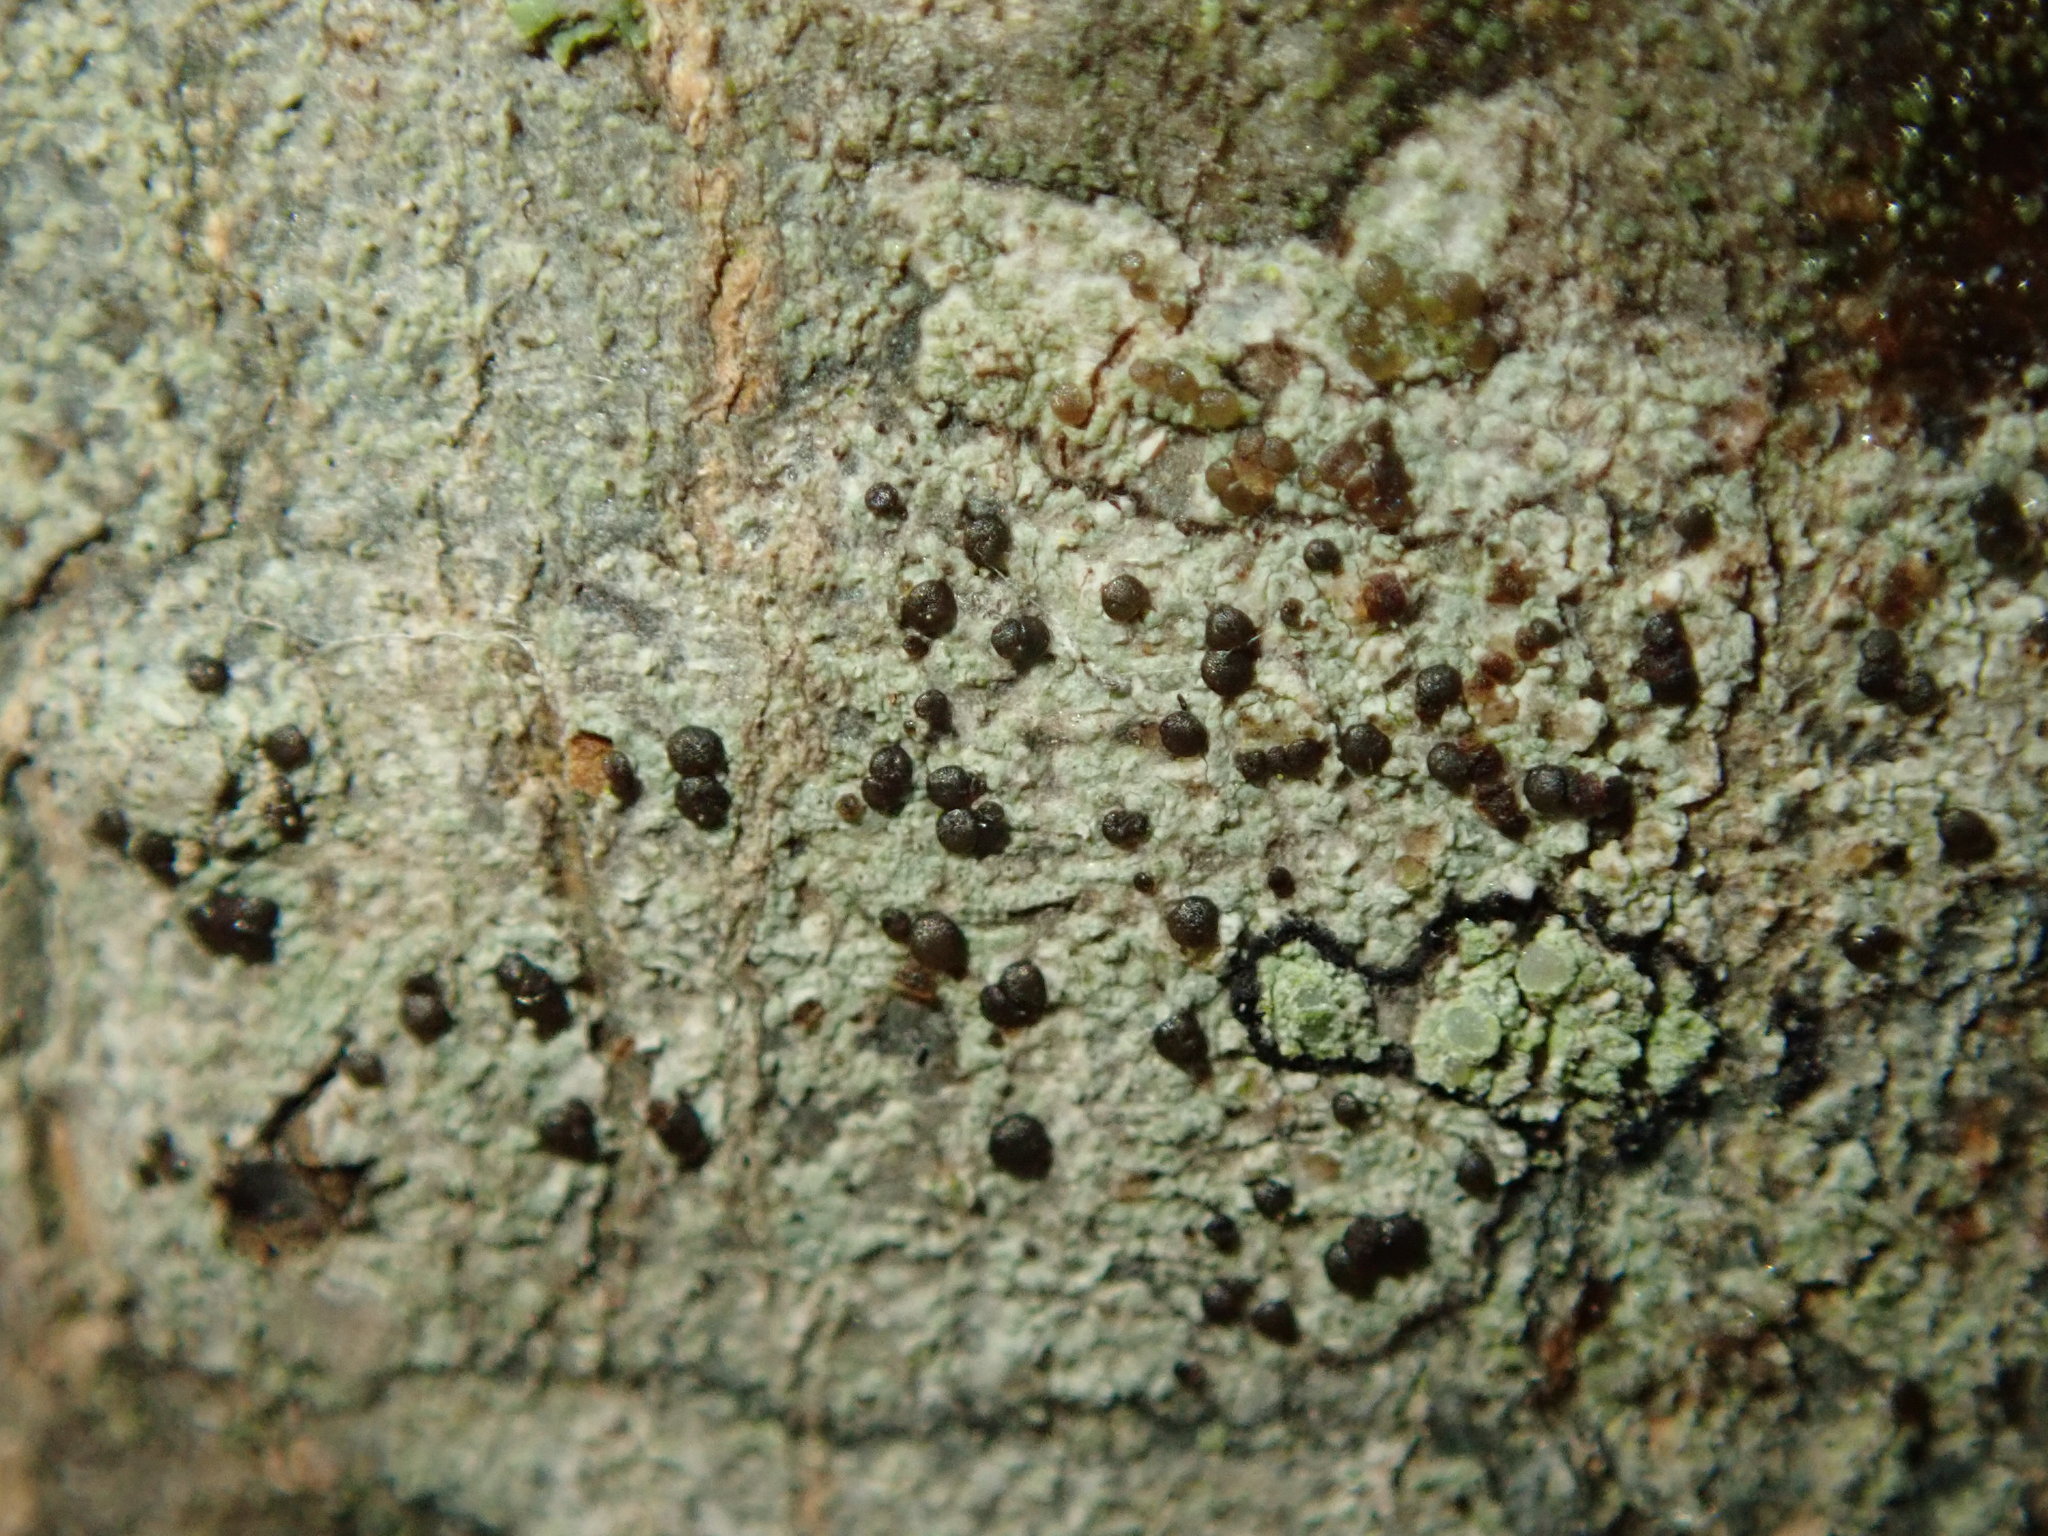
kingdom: Fungi
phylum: Ascomycota
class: Lecanoromycetes
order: Lecanorales
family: Lecanoraceae
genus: Traponora
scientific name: Traponora varians
